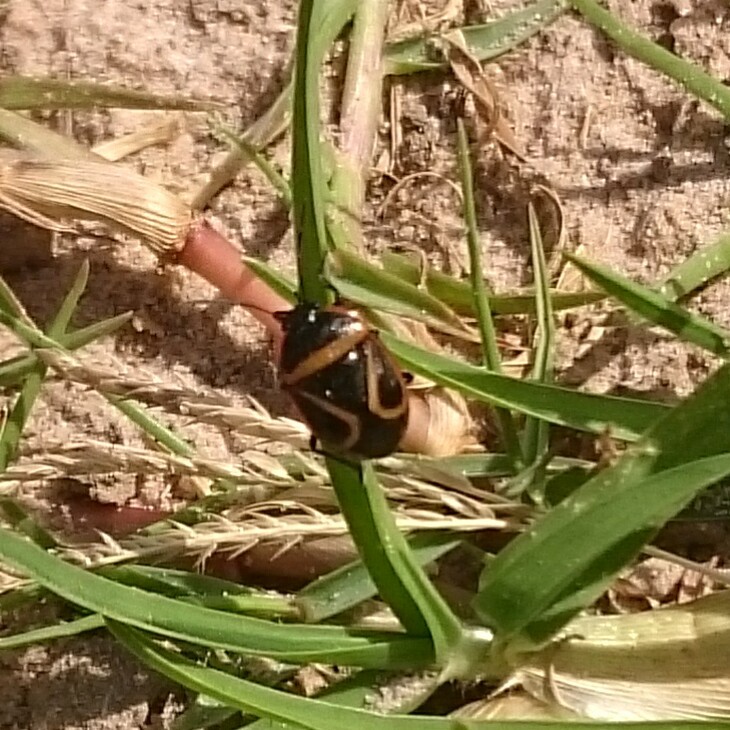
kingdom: Animalia
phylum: Arthropoda
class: Insecta
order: Hemiptera
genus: Dismegistus
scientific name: Dismegistus
